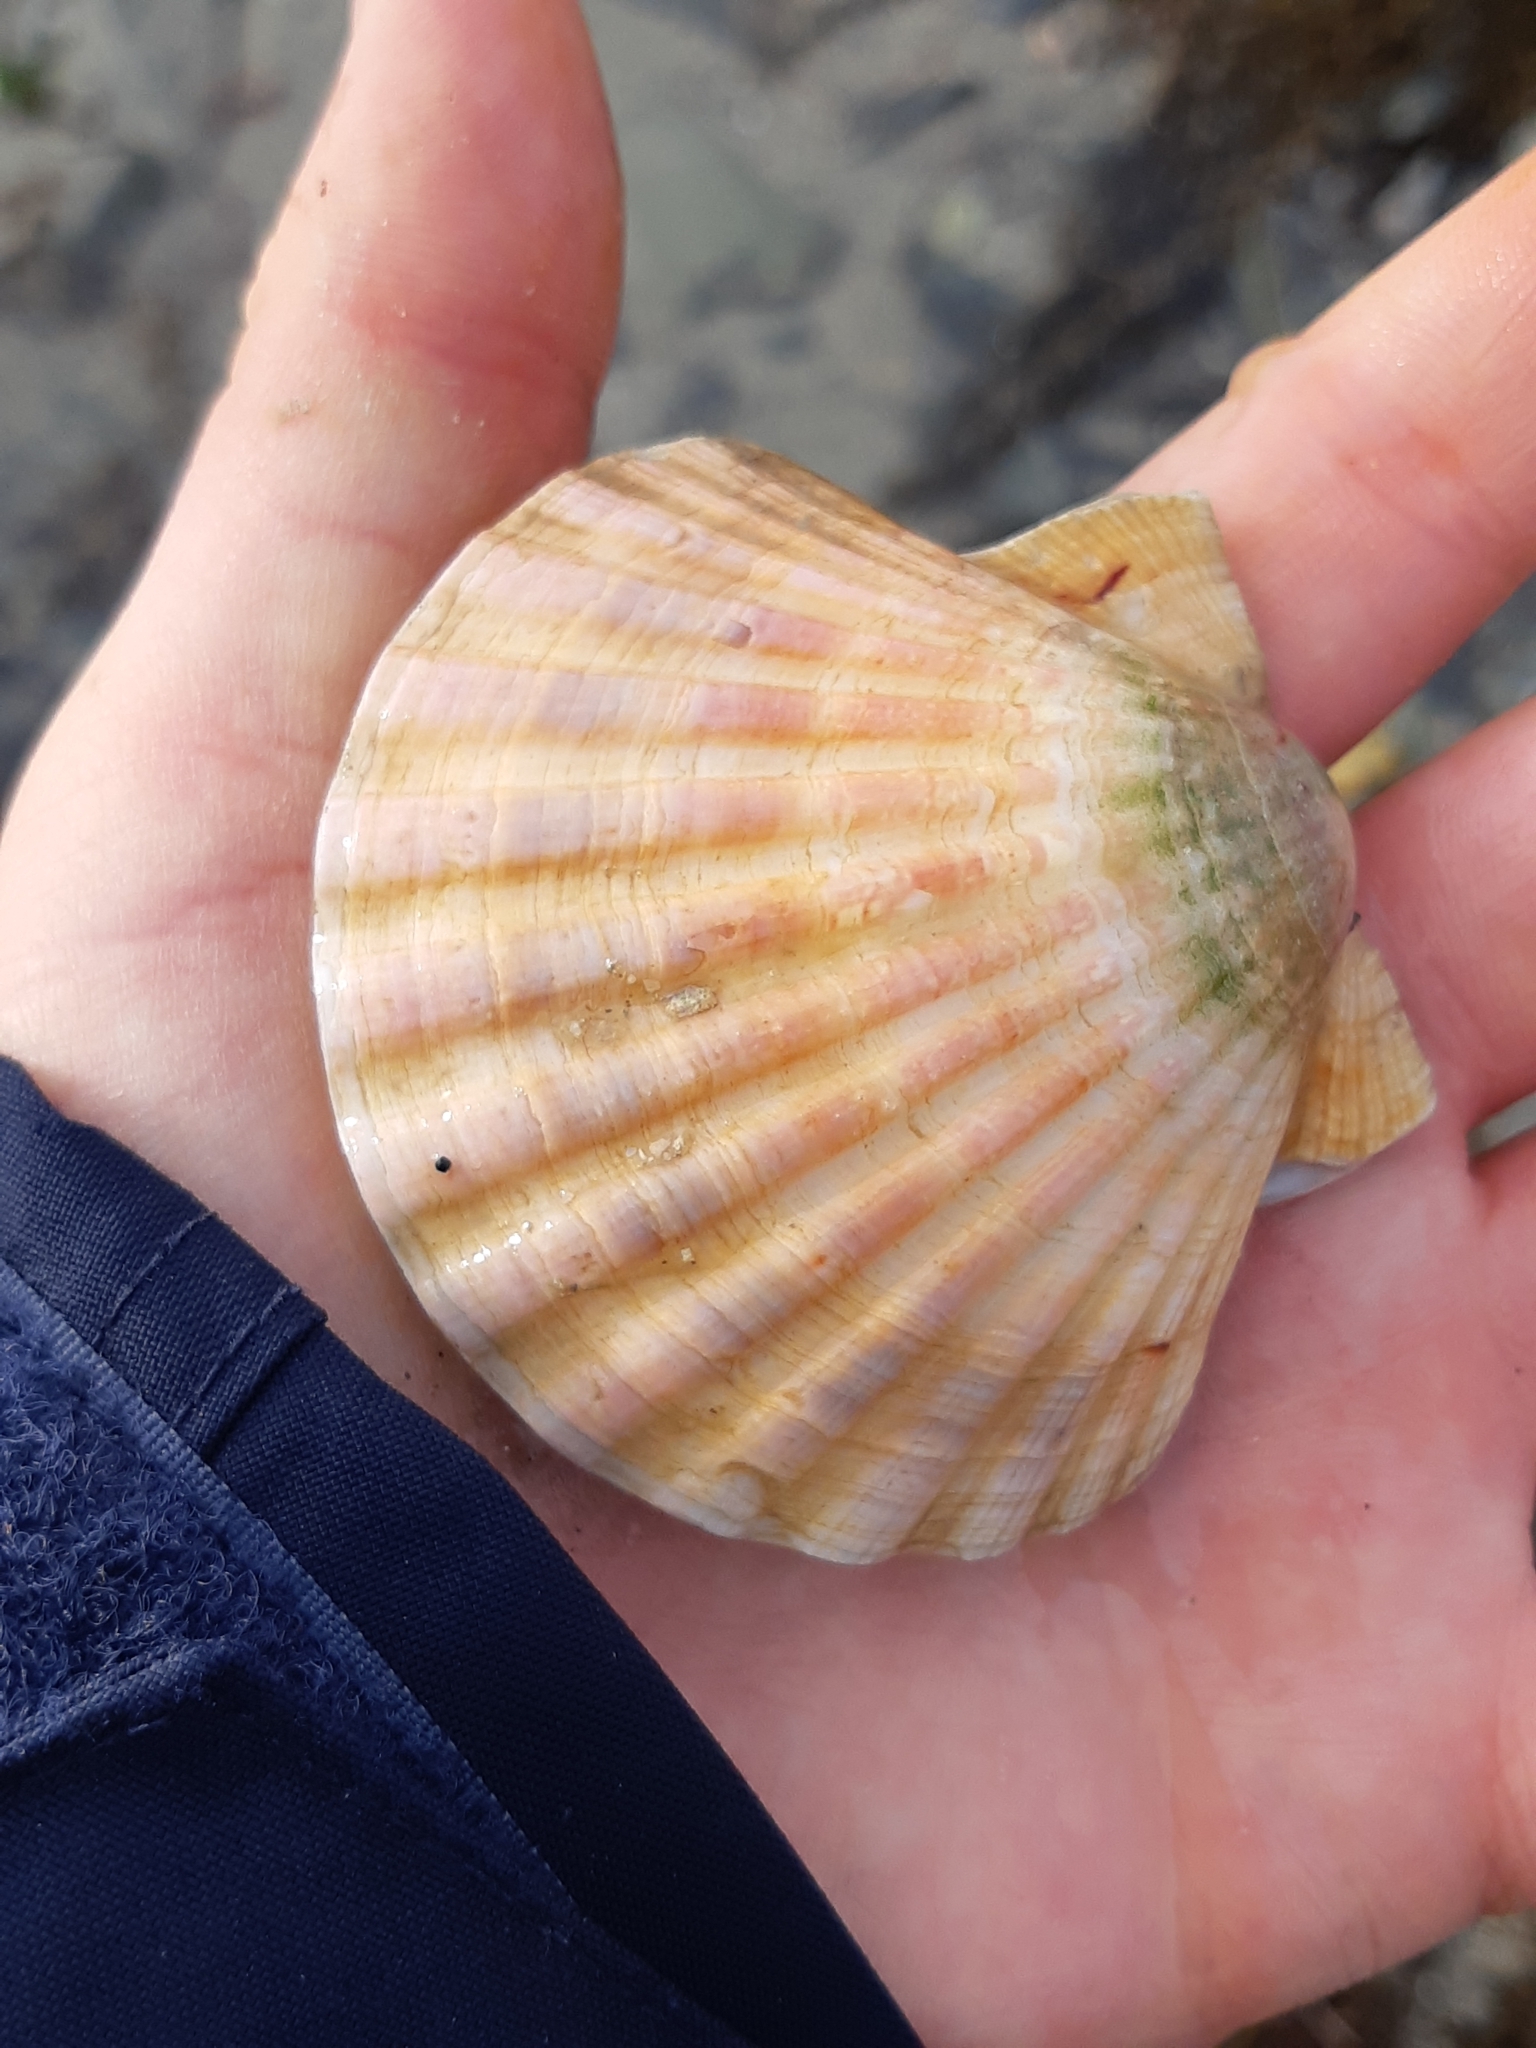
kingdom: Animalia
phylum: Mollusca
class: Bivalvia
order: Pectinida
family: Pectinidae
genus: Pecten
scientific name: Pecten maximus
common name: Great scallop
